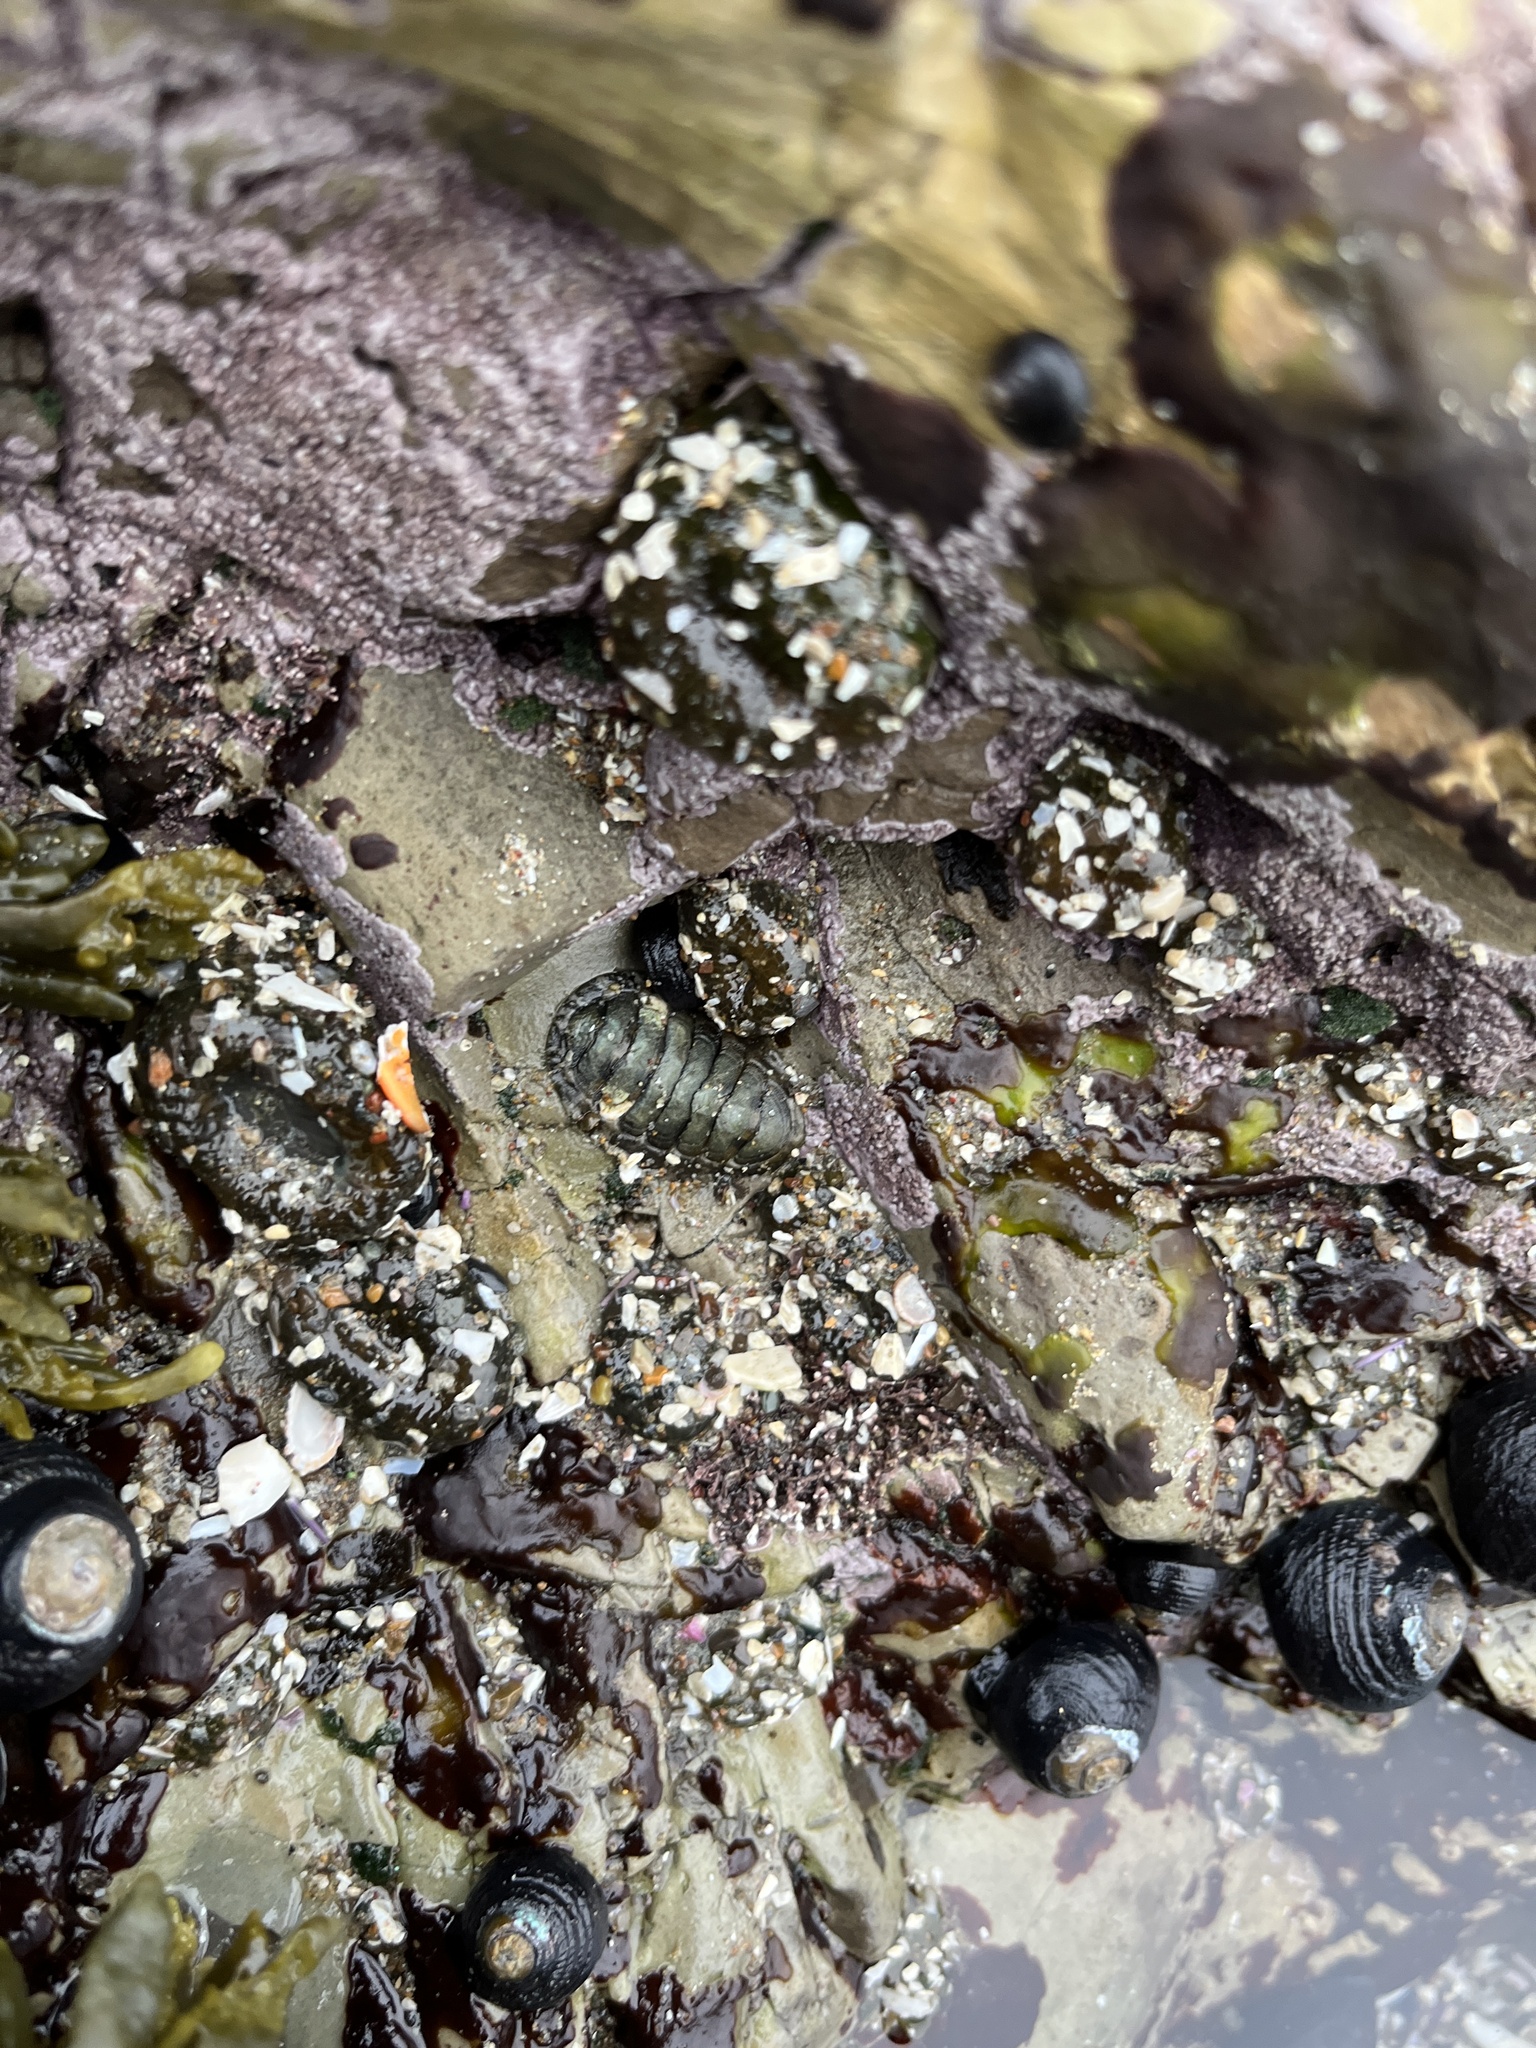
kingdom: Animalia
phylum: Mollusca
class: Polyplacophora
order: Chitonida
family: Tonicellidae
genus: Cyanoplax
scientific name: Cyanoplax hartwegii
